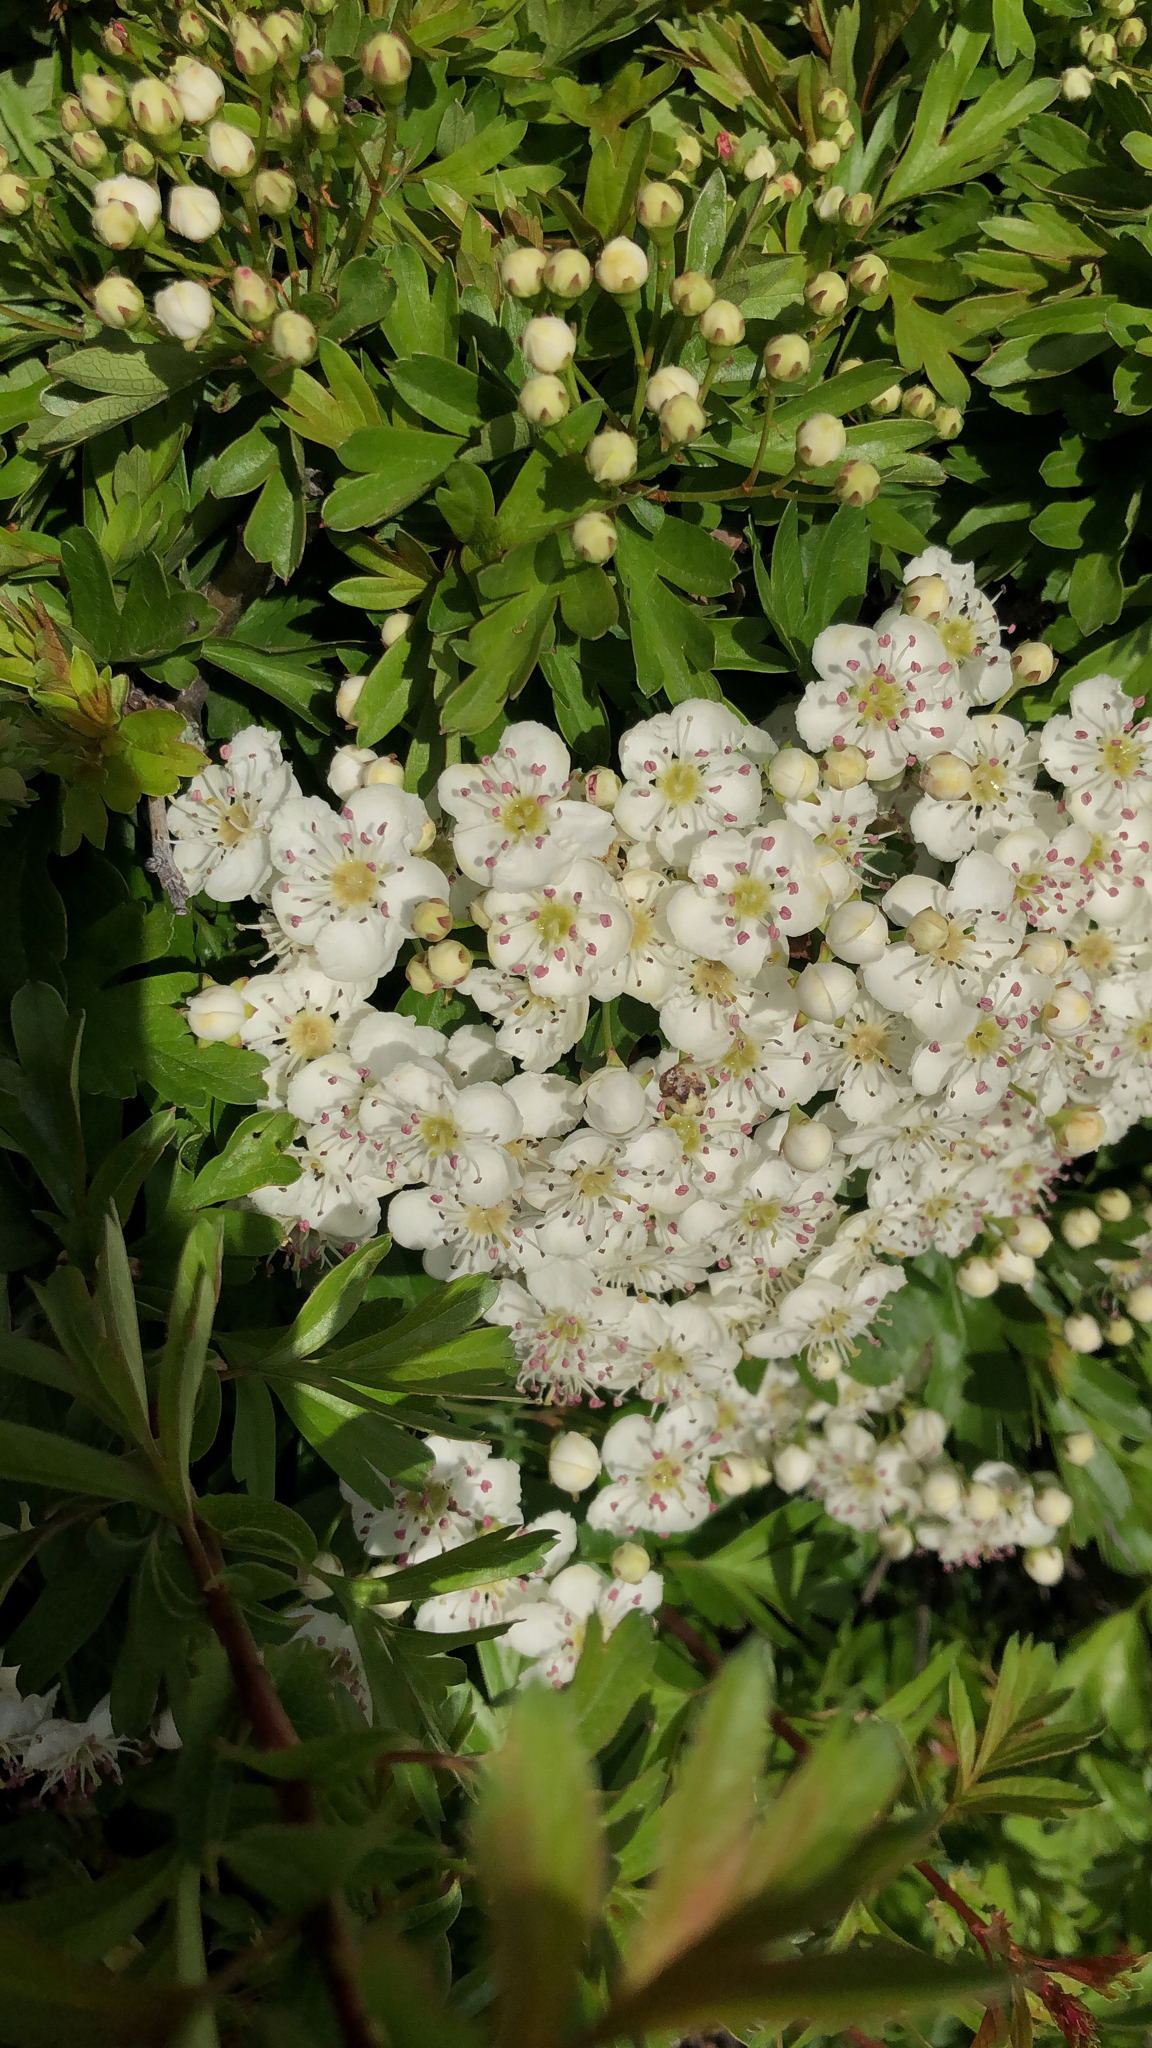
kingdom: Plantae
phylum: Tracheophyta
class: Magnoliopsida
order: Rosales
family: Rosaceae
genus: Crataegus
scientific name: Crataegus monogyna
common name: Hawthorn
